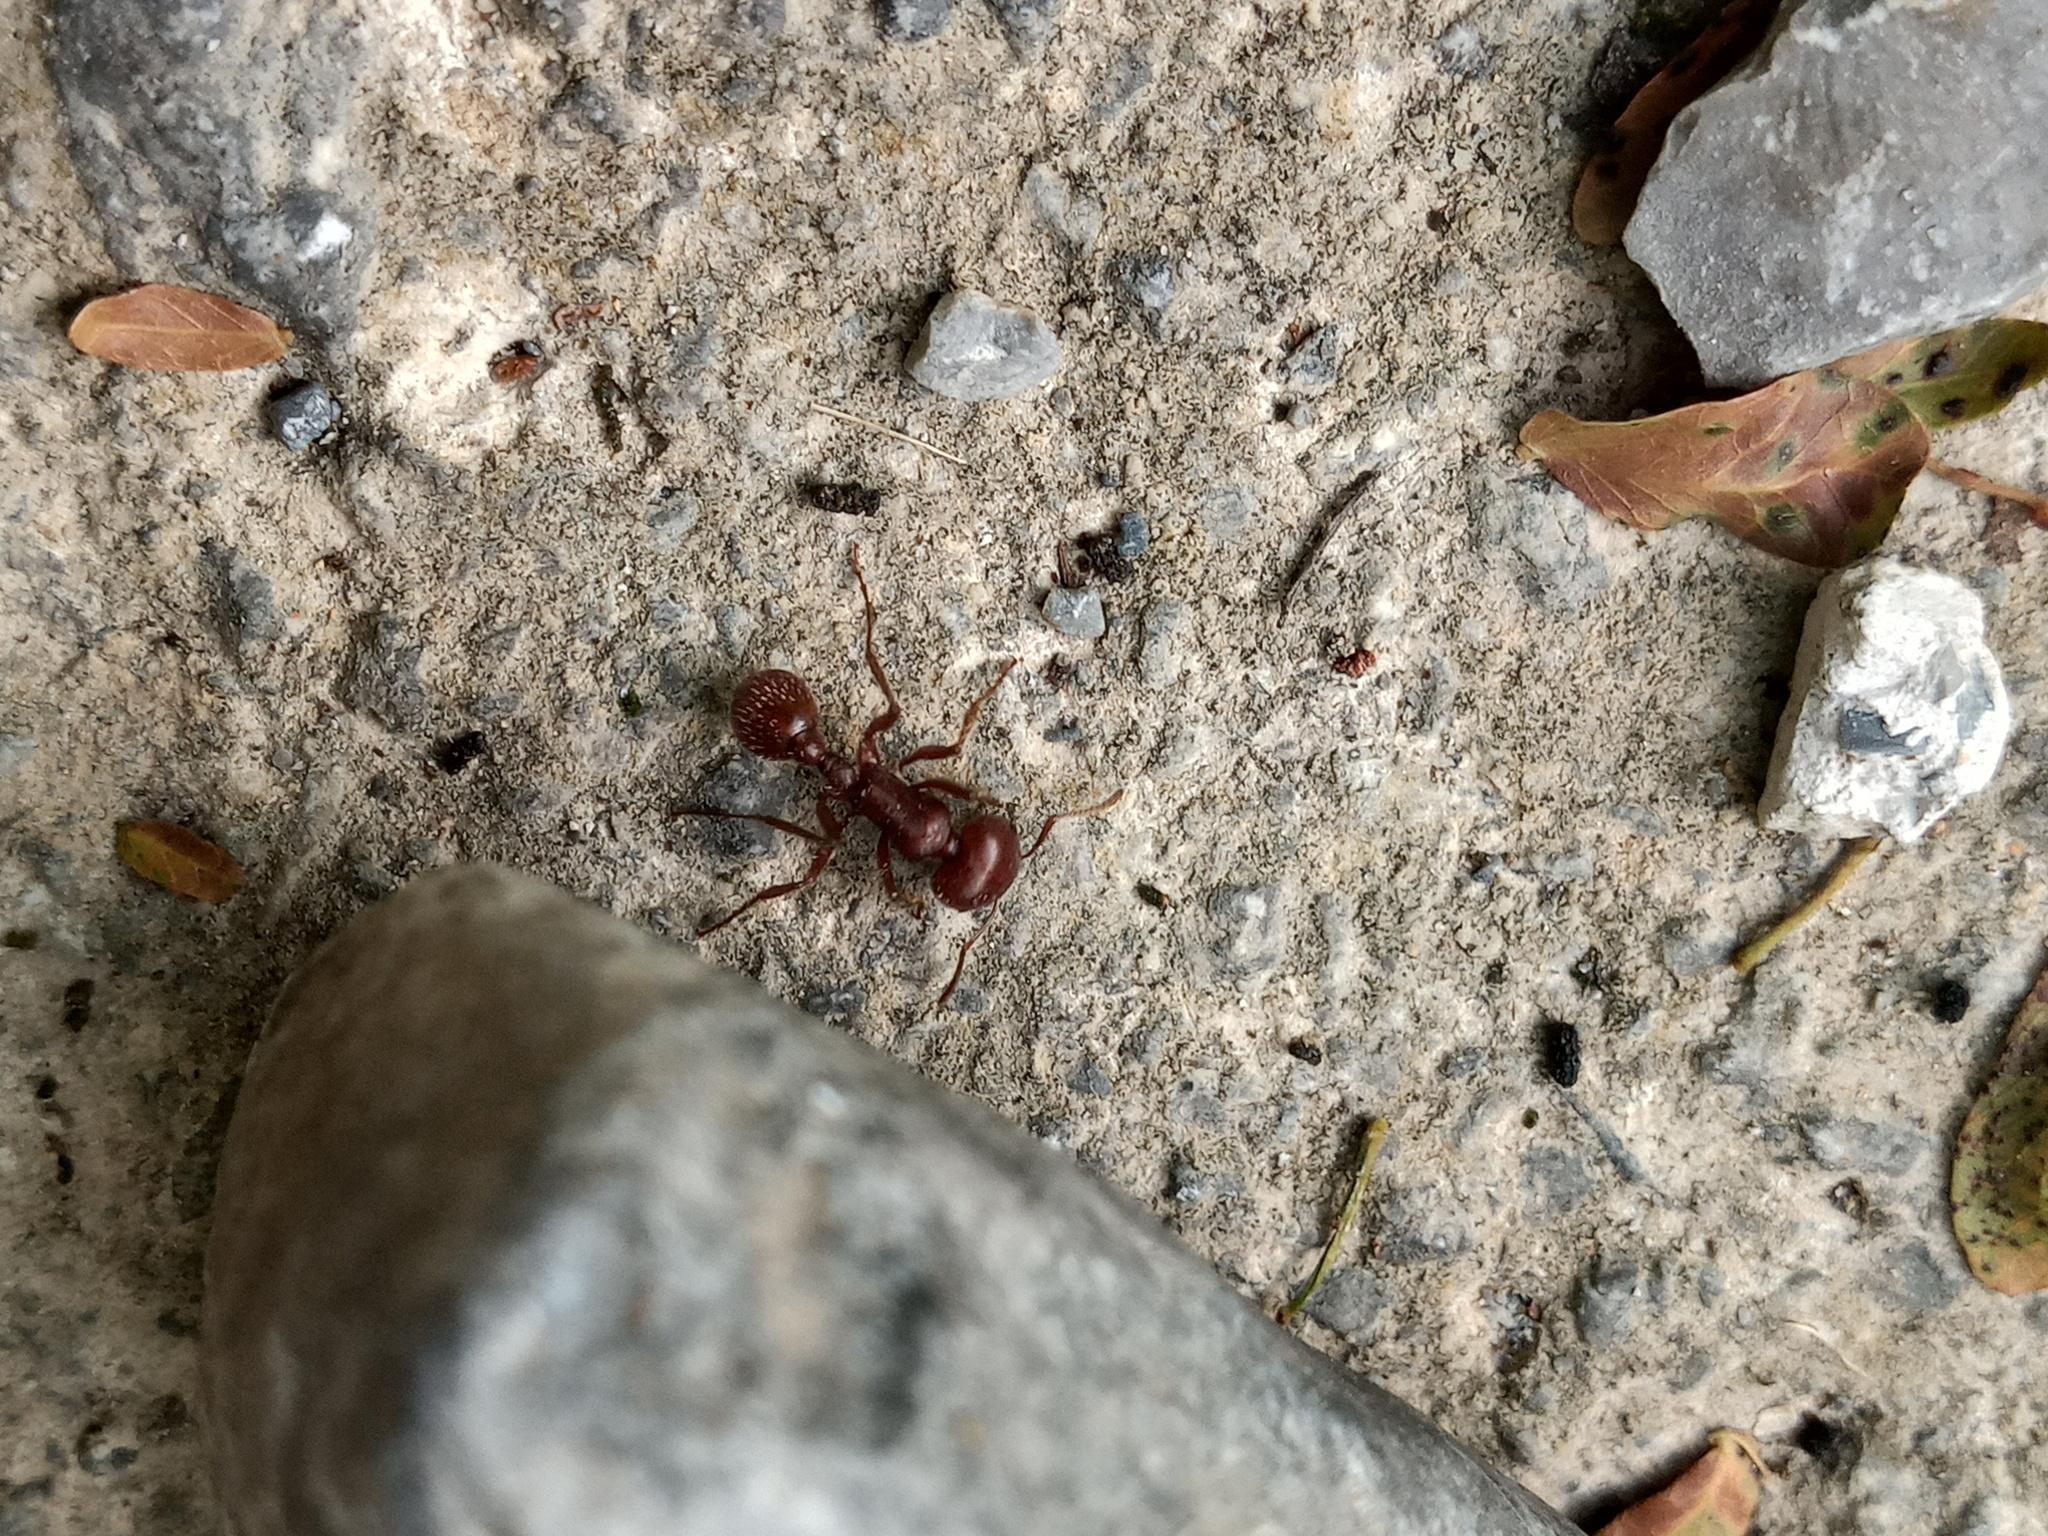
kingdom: Animalia
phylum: Arthropoda
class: Insecta
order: Hymenoptera
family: Formicidae
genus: Pogonomyrmex
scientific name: Pogonomyrmex barbatus
